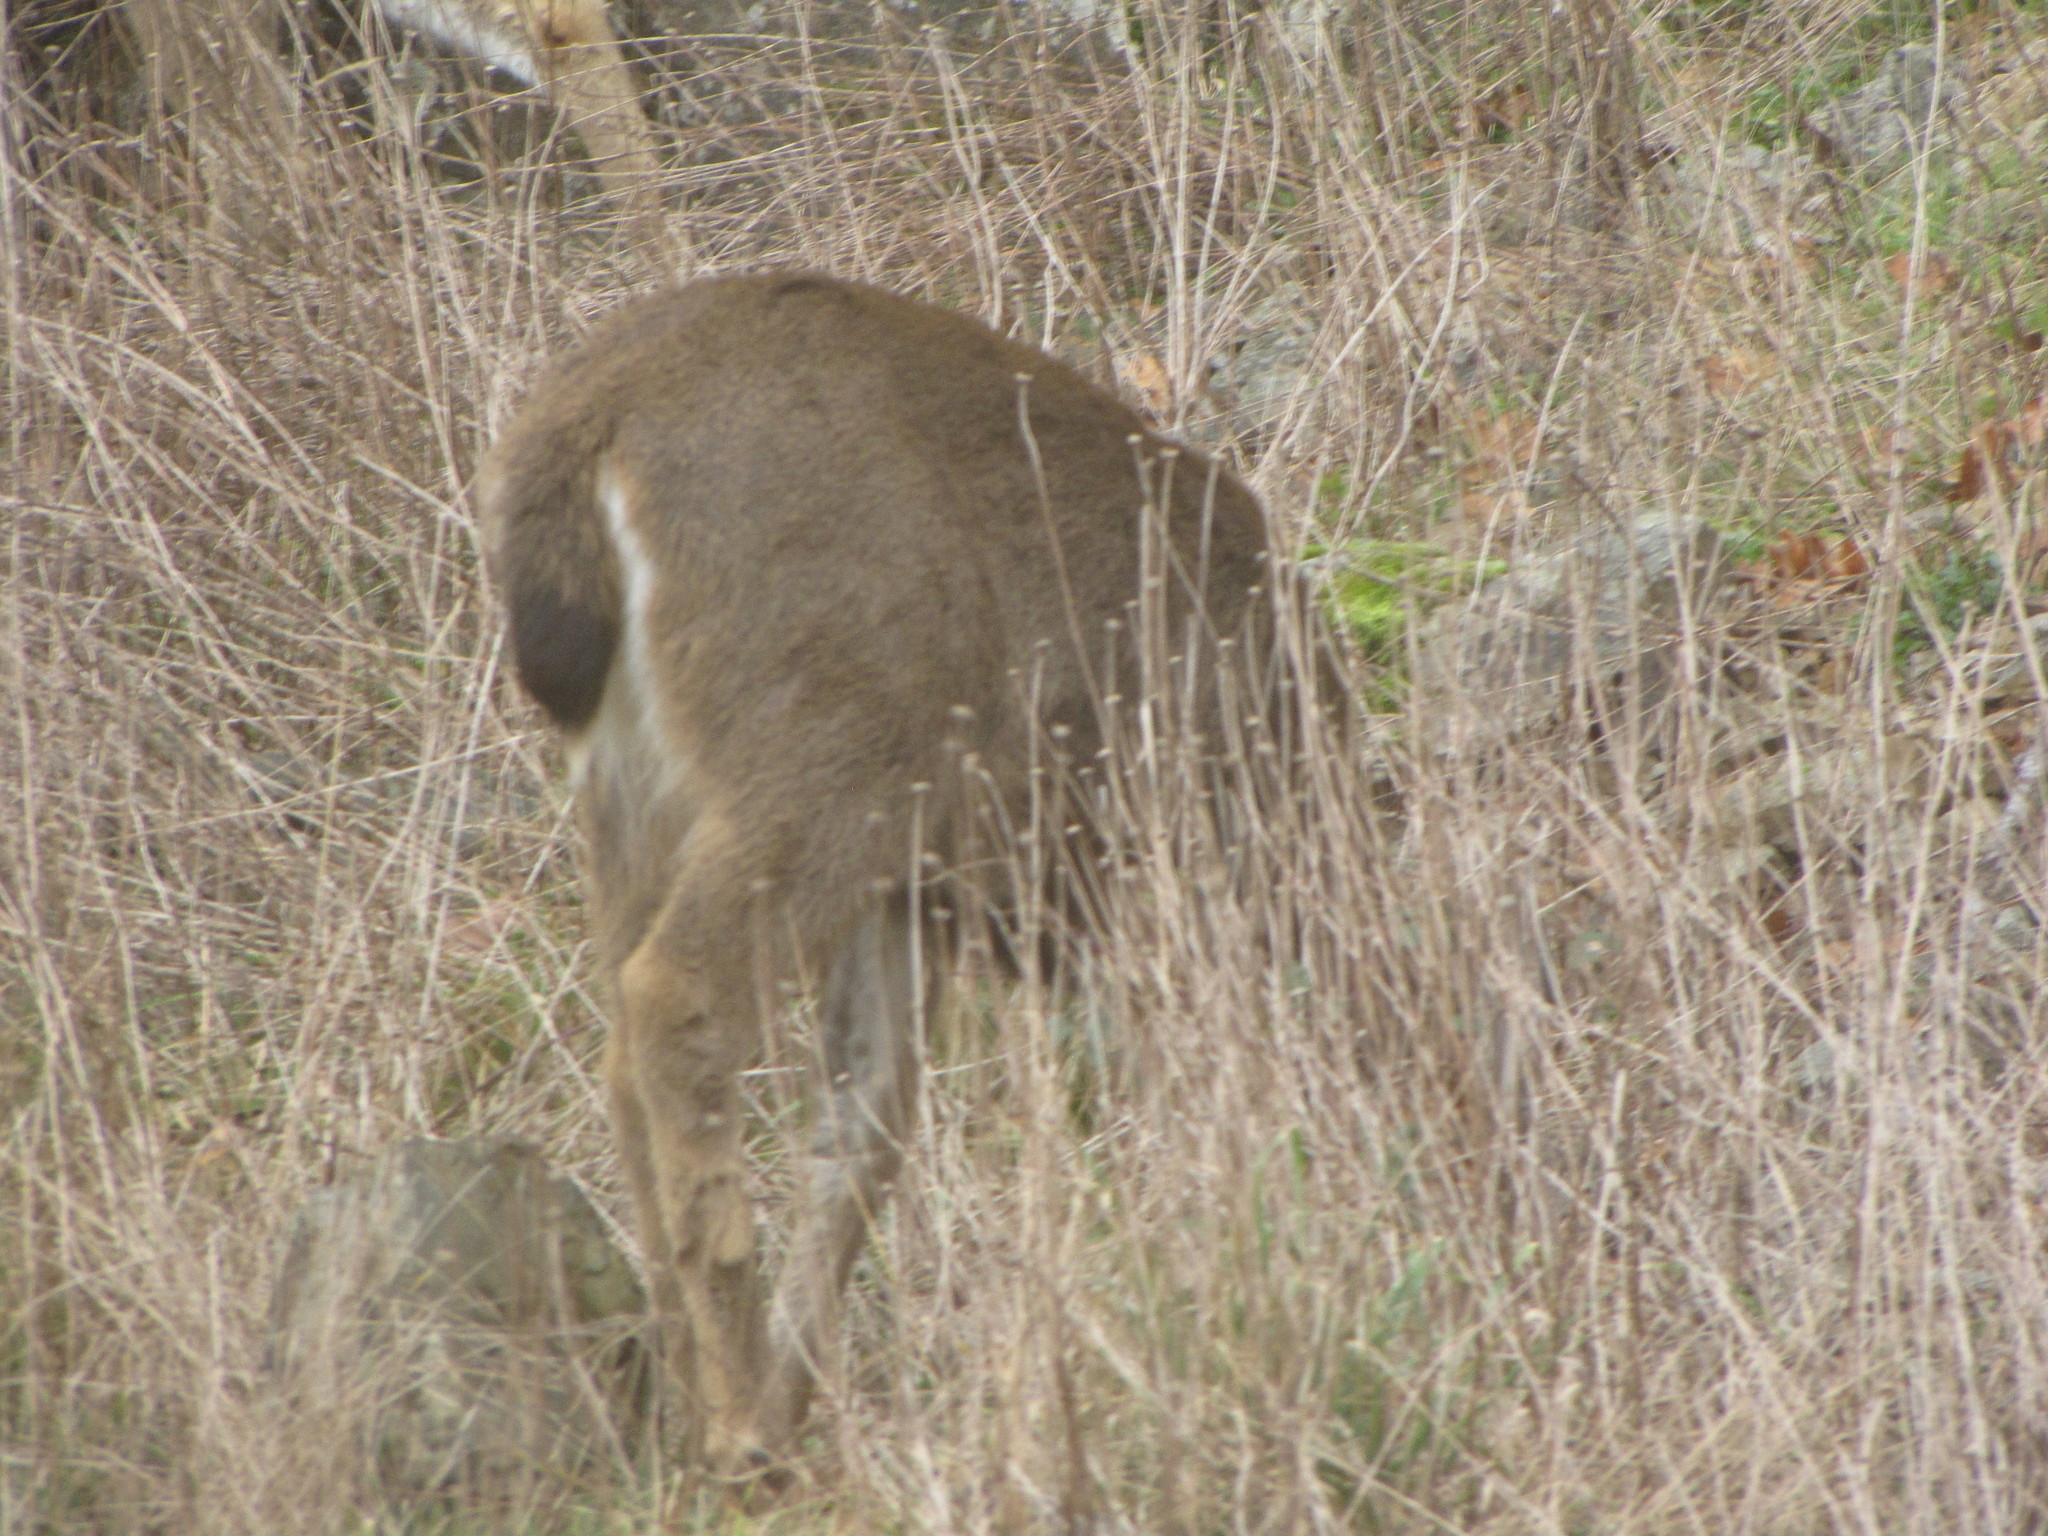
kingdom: Animalia
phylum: Chordata
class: Mammalia
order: Artiodactyla
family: Cervidae
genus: Odocoileus
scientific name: Odocoileus hemionus
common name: Mule deer
